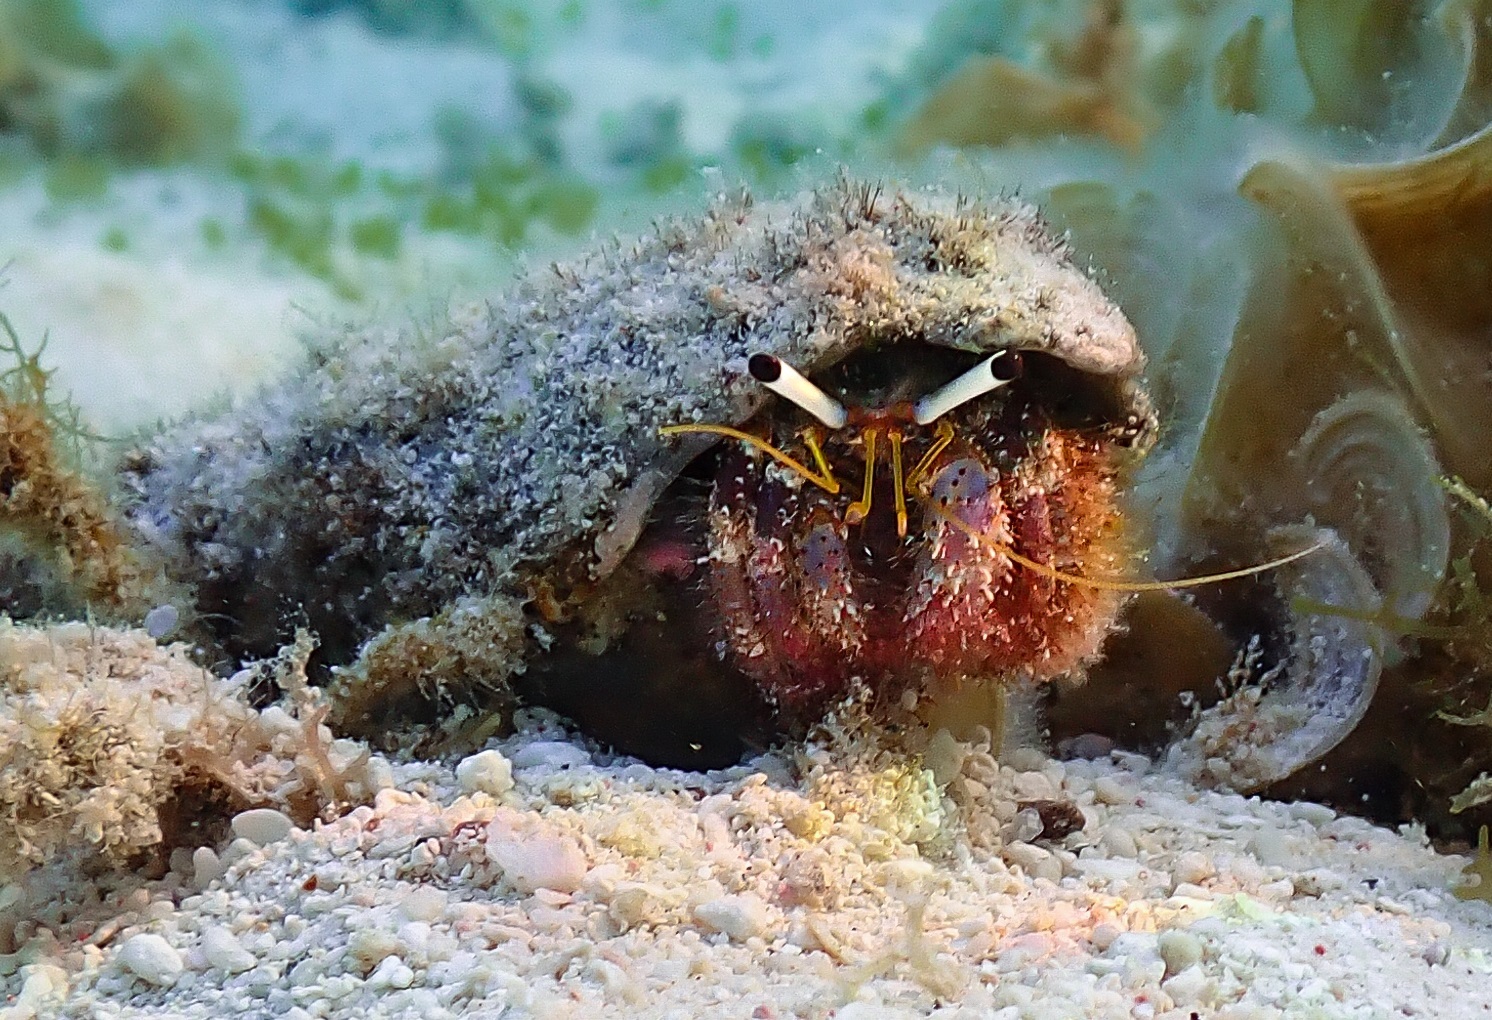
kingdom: Animalia
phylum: Arthropoda
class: Malacostraca
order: Decapoda
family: Diogenidae
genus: Dardanus
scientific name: Dardanus lagopodes
